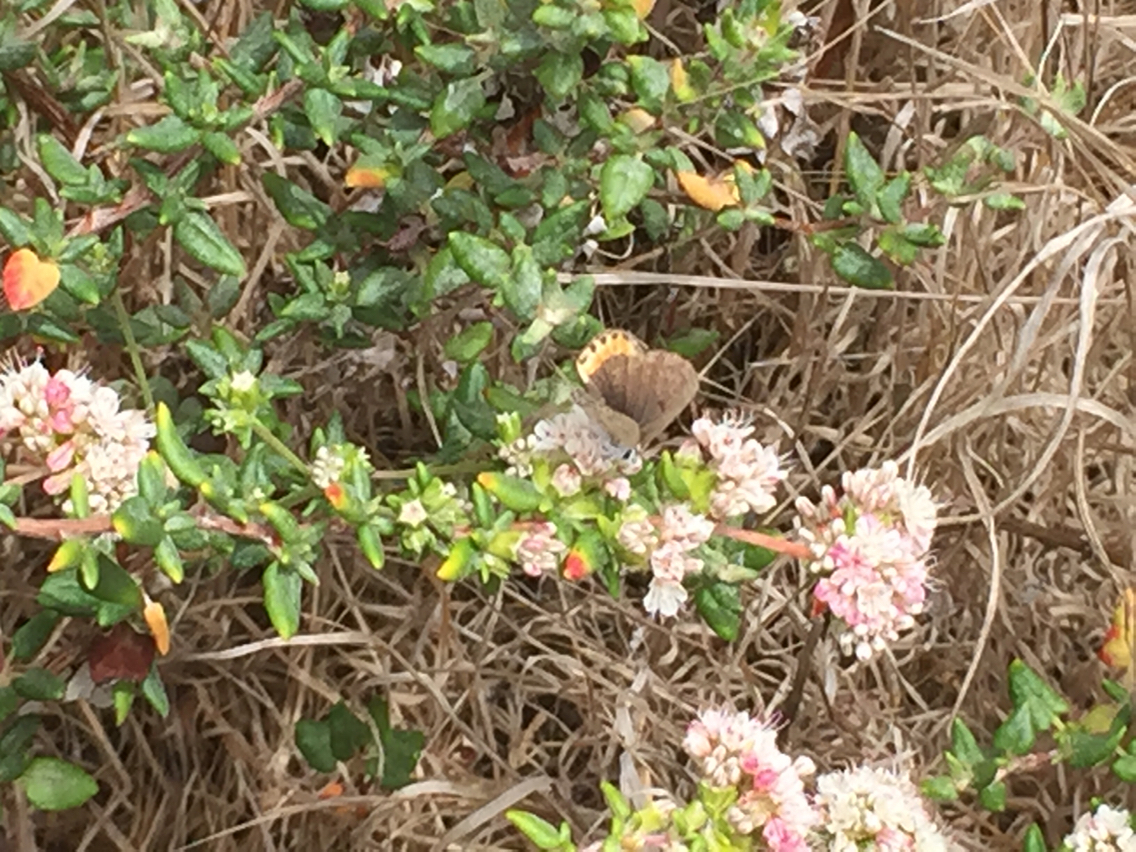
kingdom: Animalia
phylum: Arthropoda
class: Insecta
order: Lepidoptera
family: Lycaenidae
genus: Icaricia
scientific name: Icaricia acmon
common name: Acmon blue
